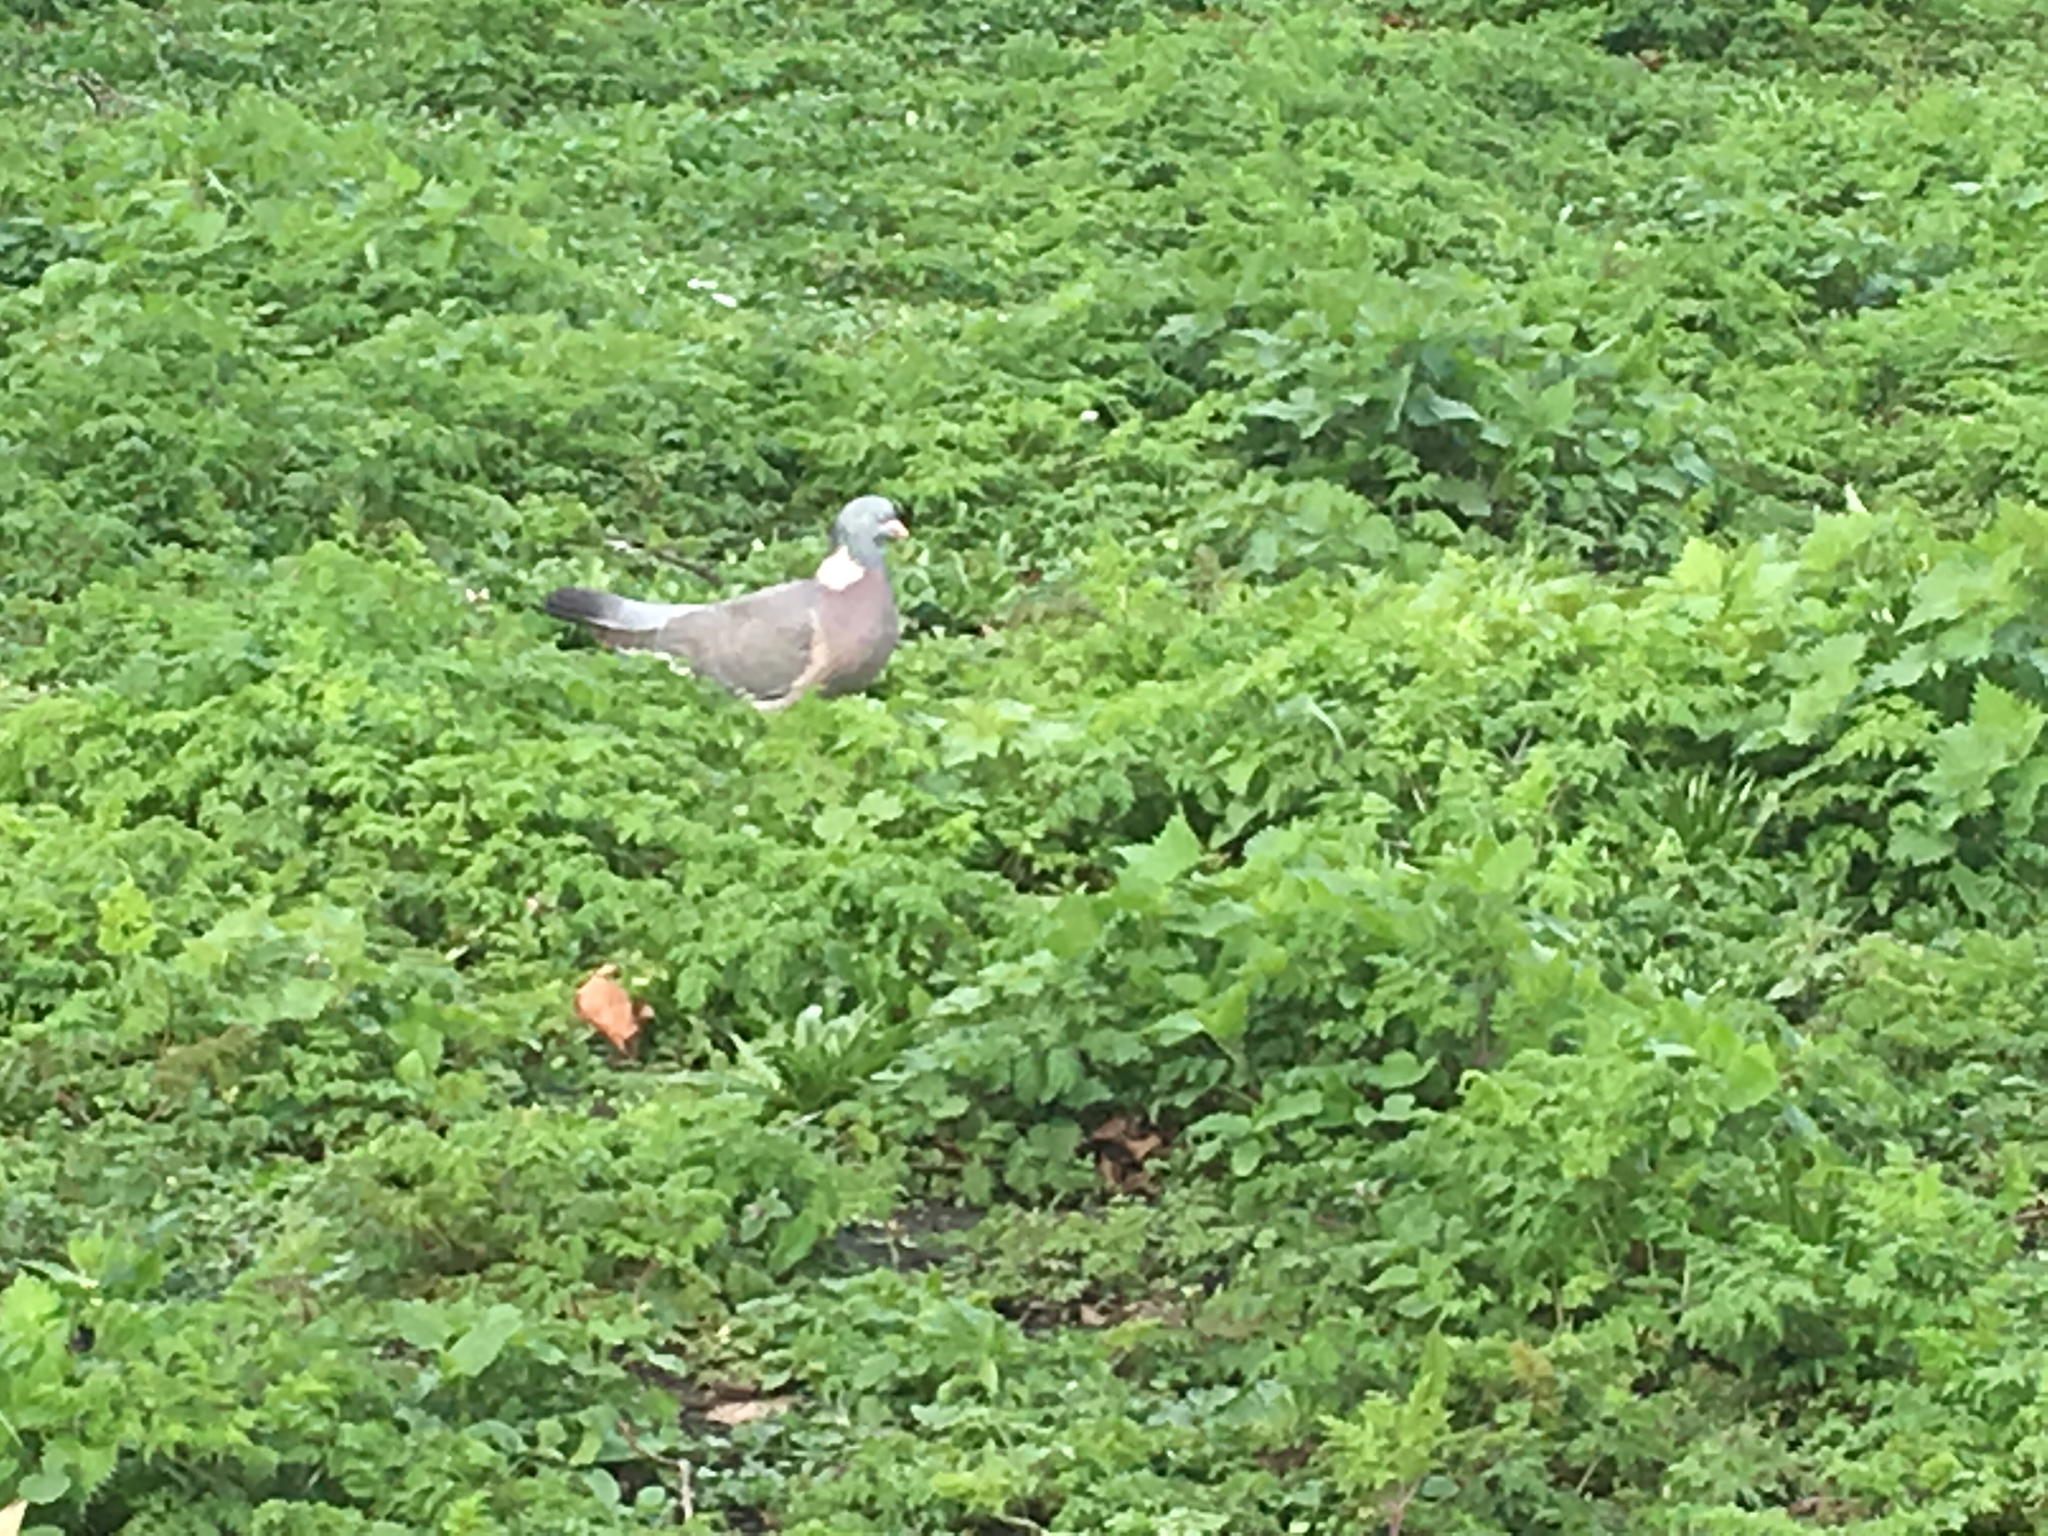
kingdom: Animalia
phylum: Chordata
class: Aves
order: Columbiformes
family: Columbidae
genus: Columba
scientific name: Columba palumbus
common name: Common wood pigeon
